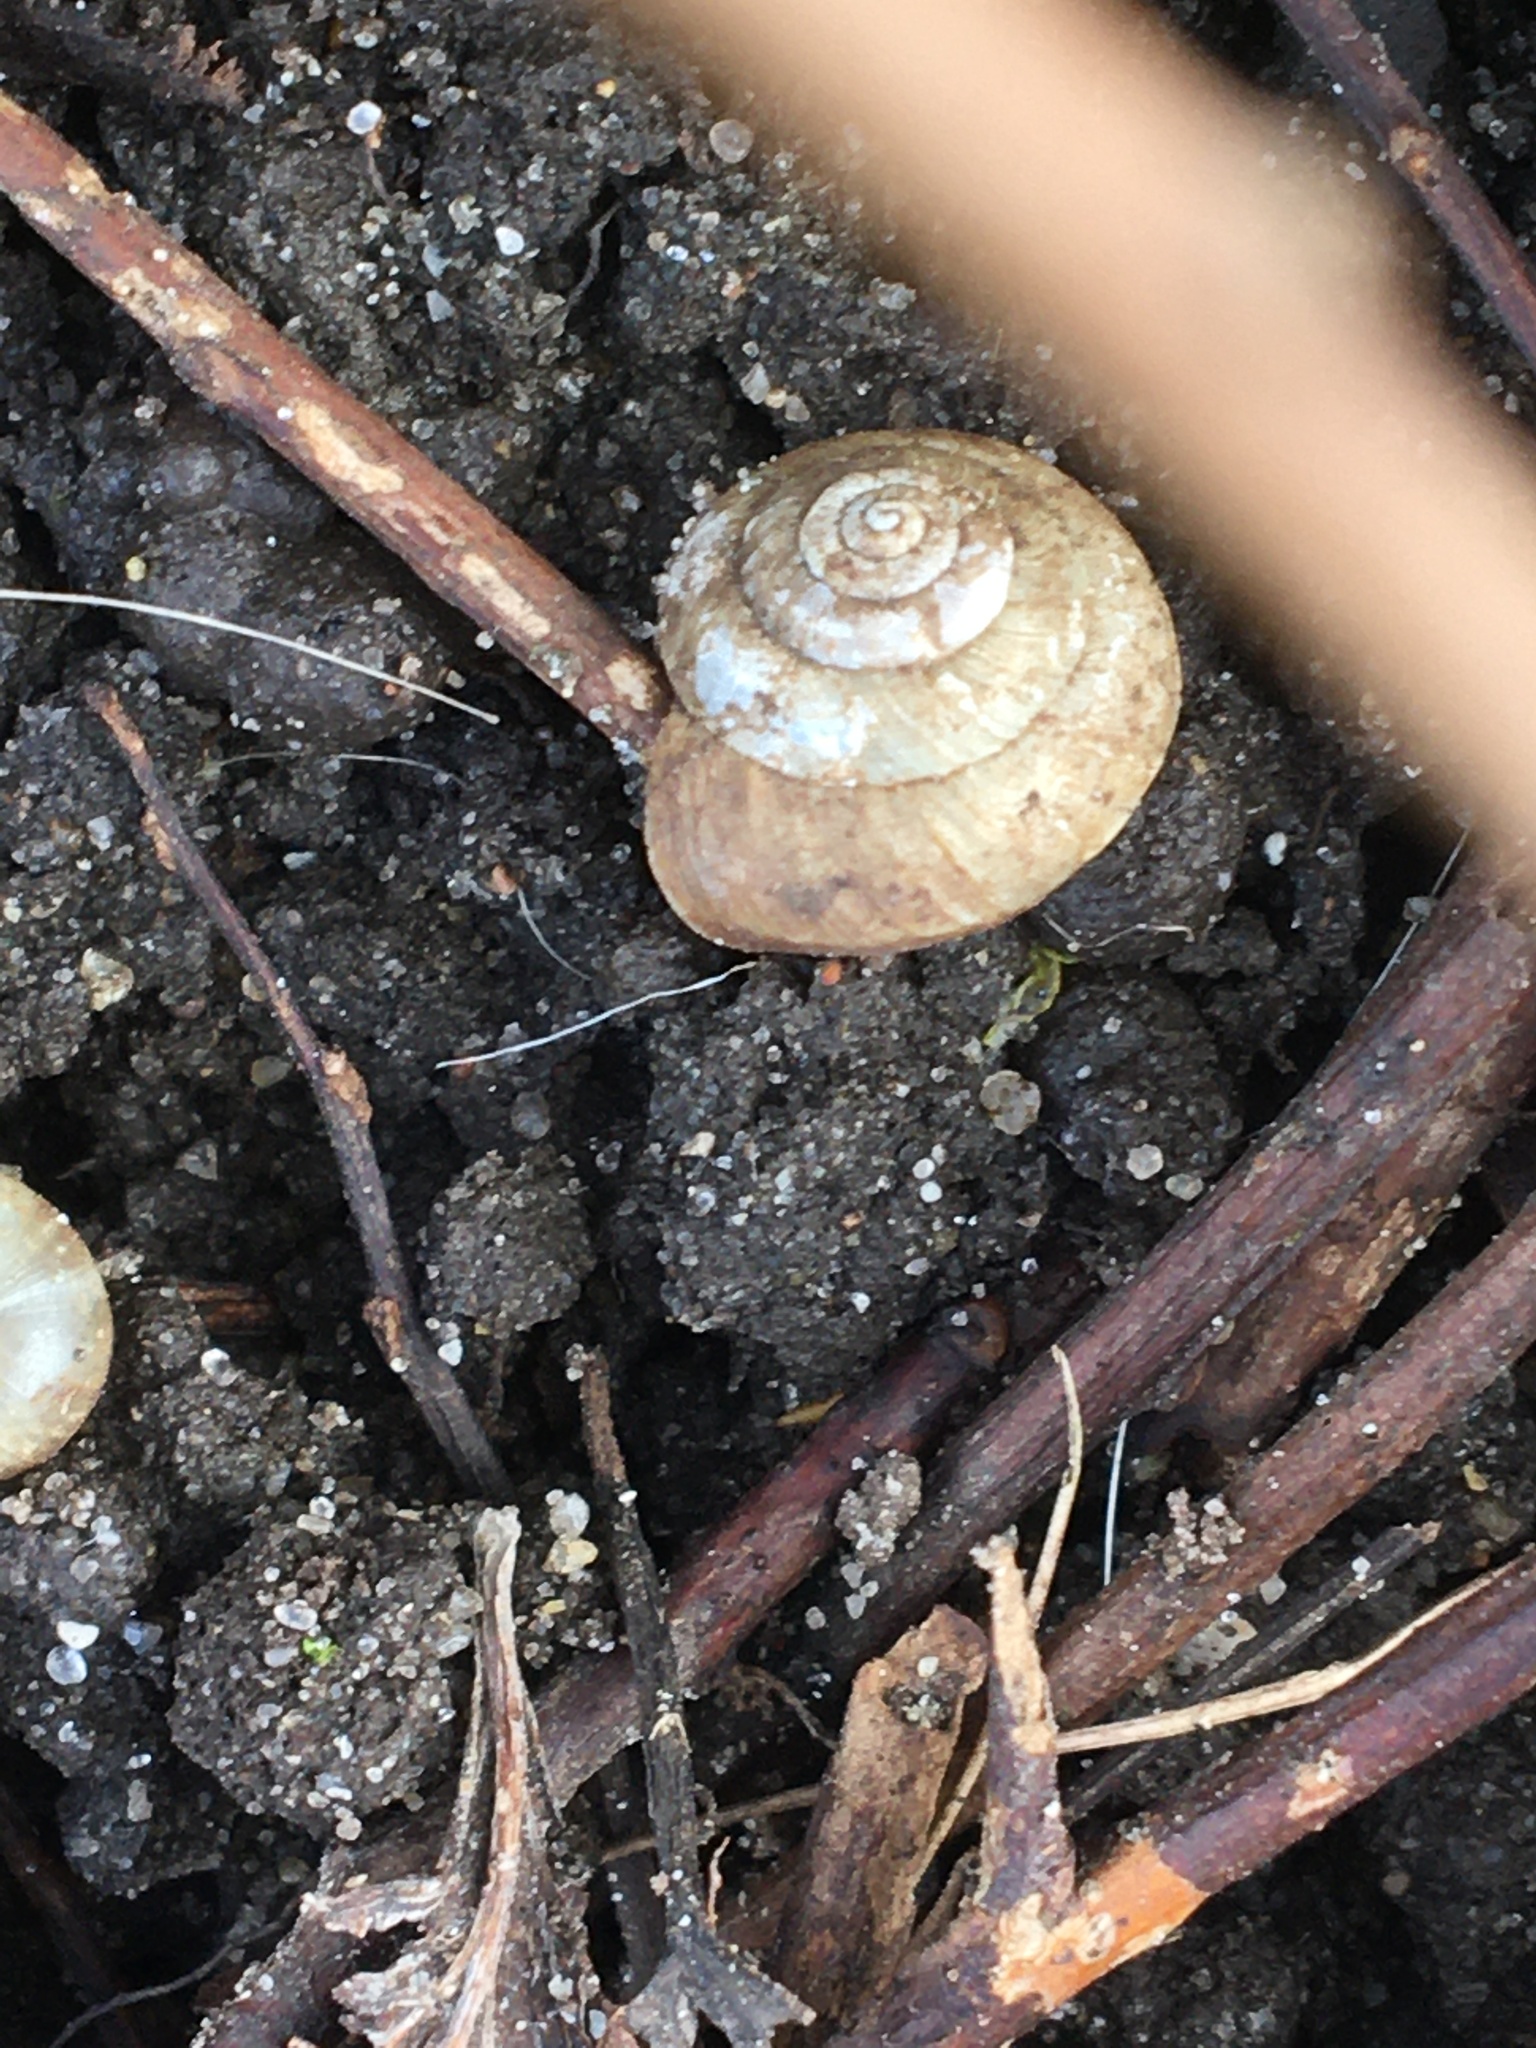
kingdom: Animalia
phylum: Mollusca
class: Gastropoda
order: Stylommatophora
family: Hygromiidae
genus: Hygromia
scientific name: Hygromia cinctella
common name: Girdled snail
